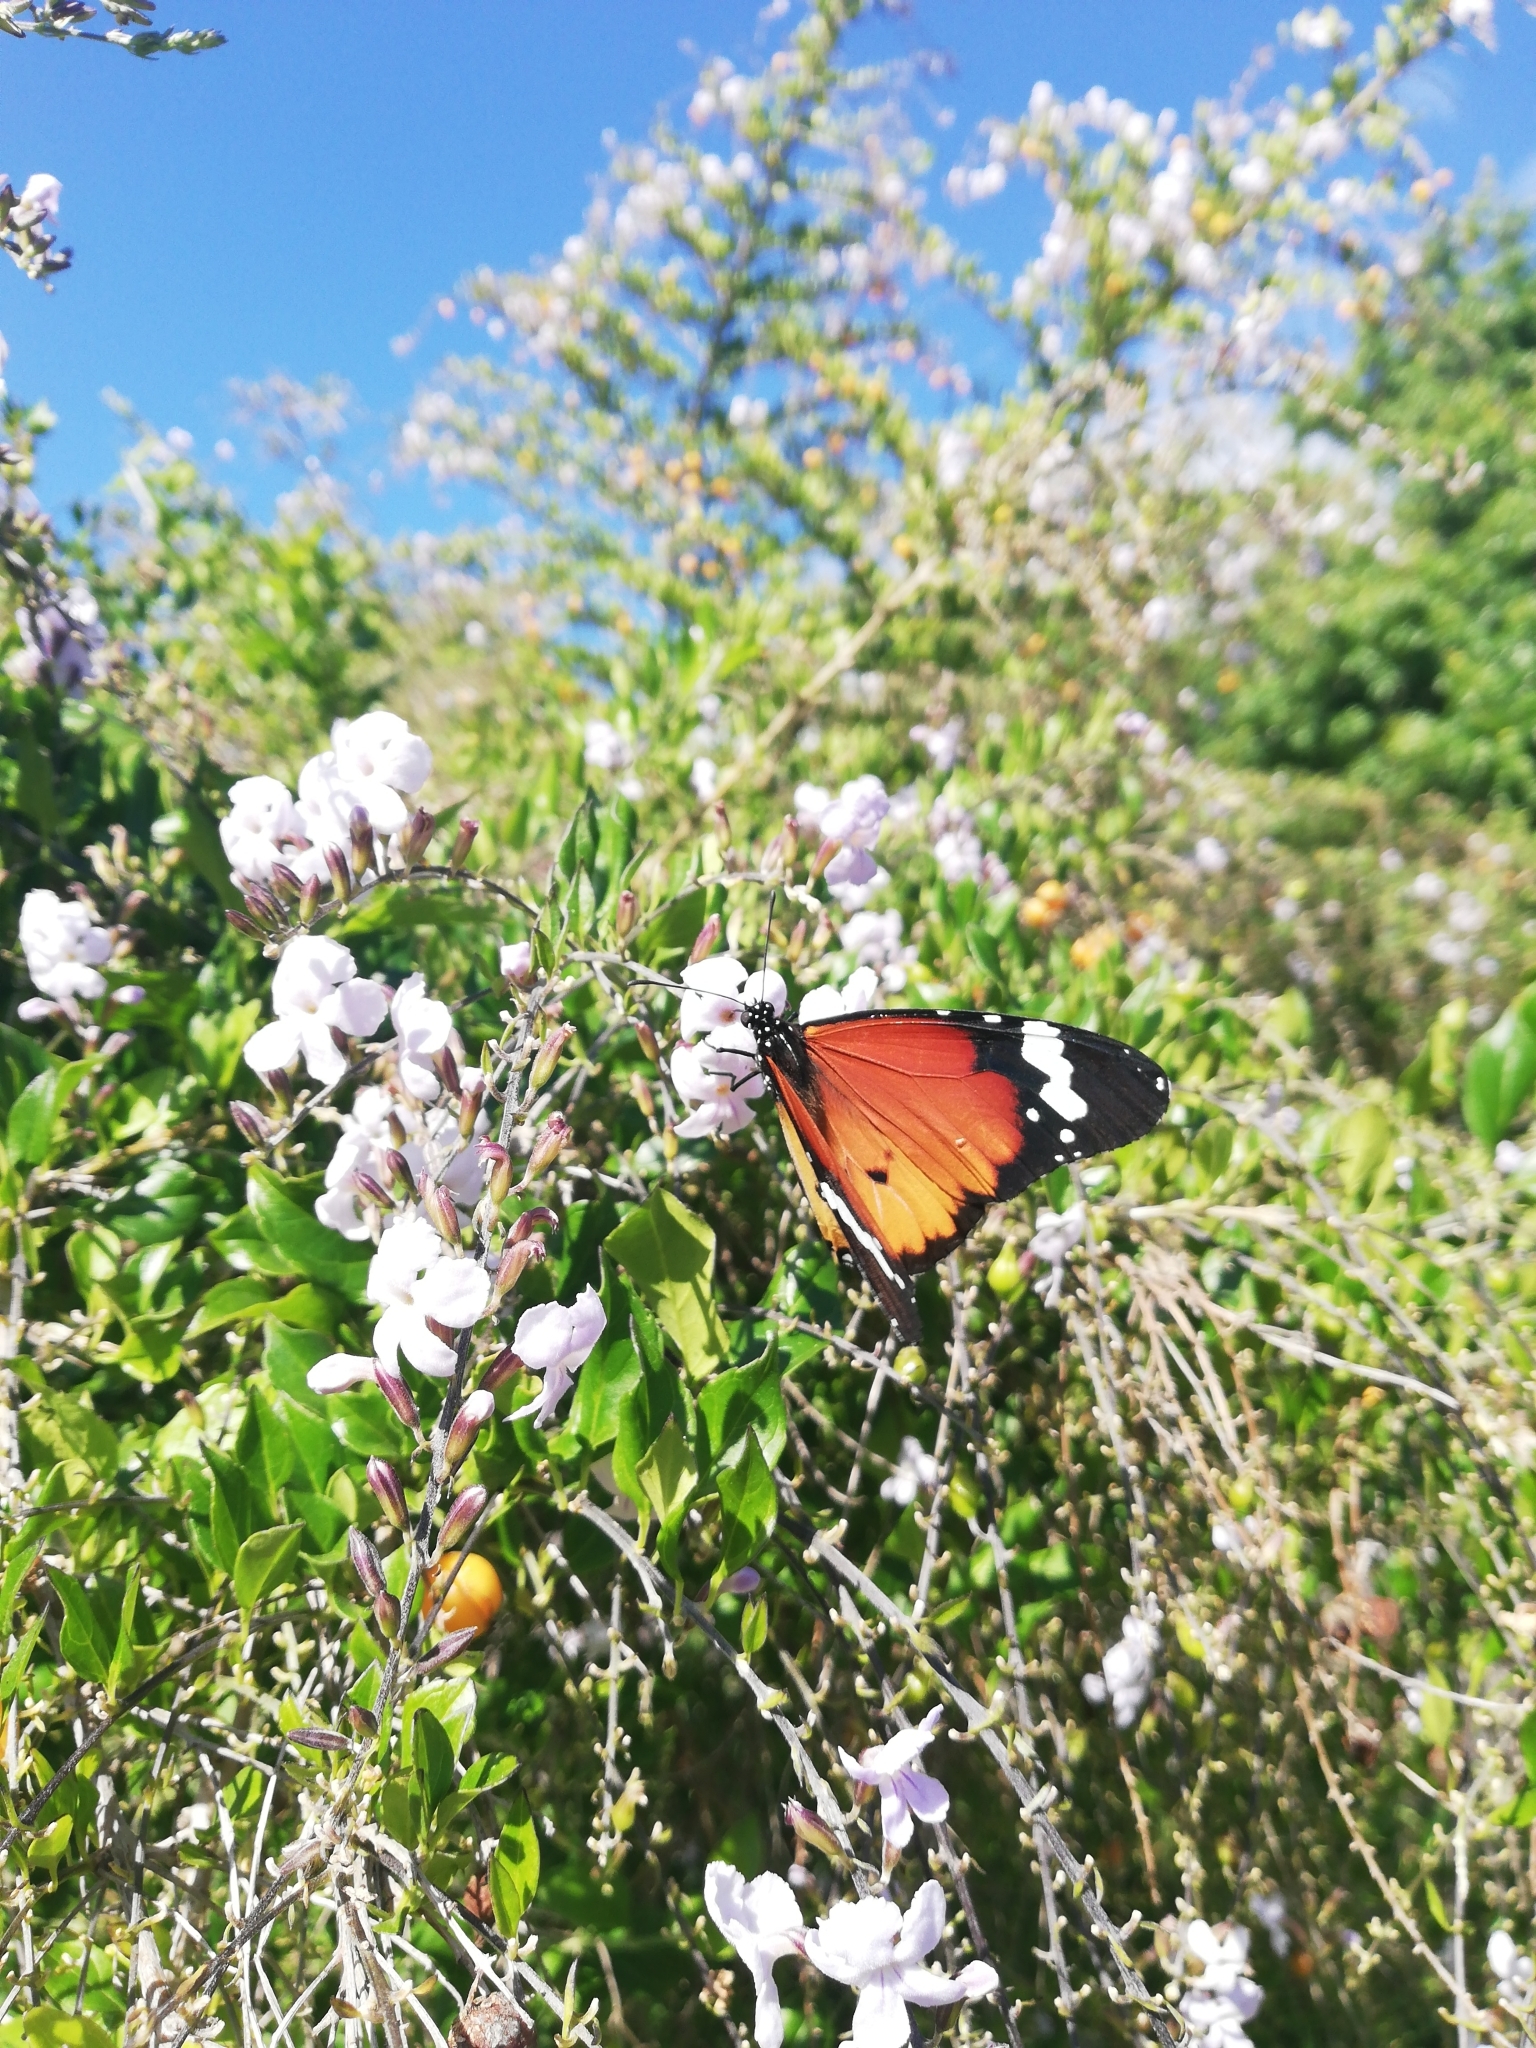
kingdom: Animalia
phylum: Arthropoda
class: Insecta
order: Lepidoptera
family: Nymphalidae
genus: Danaus
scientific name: Danaus chrysippus
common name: Plain tiger
